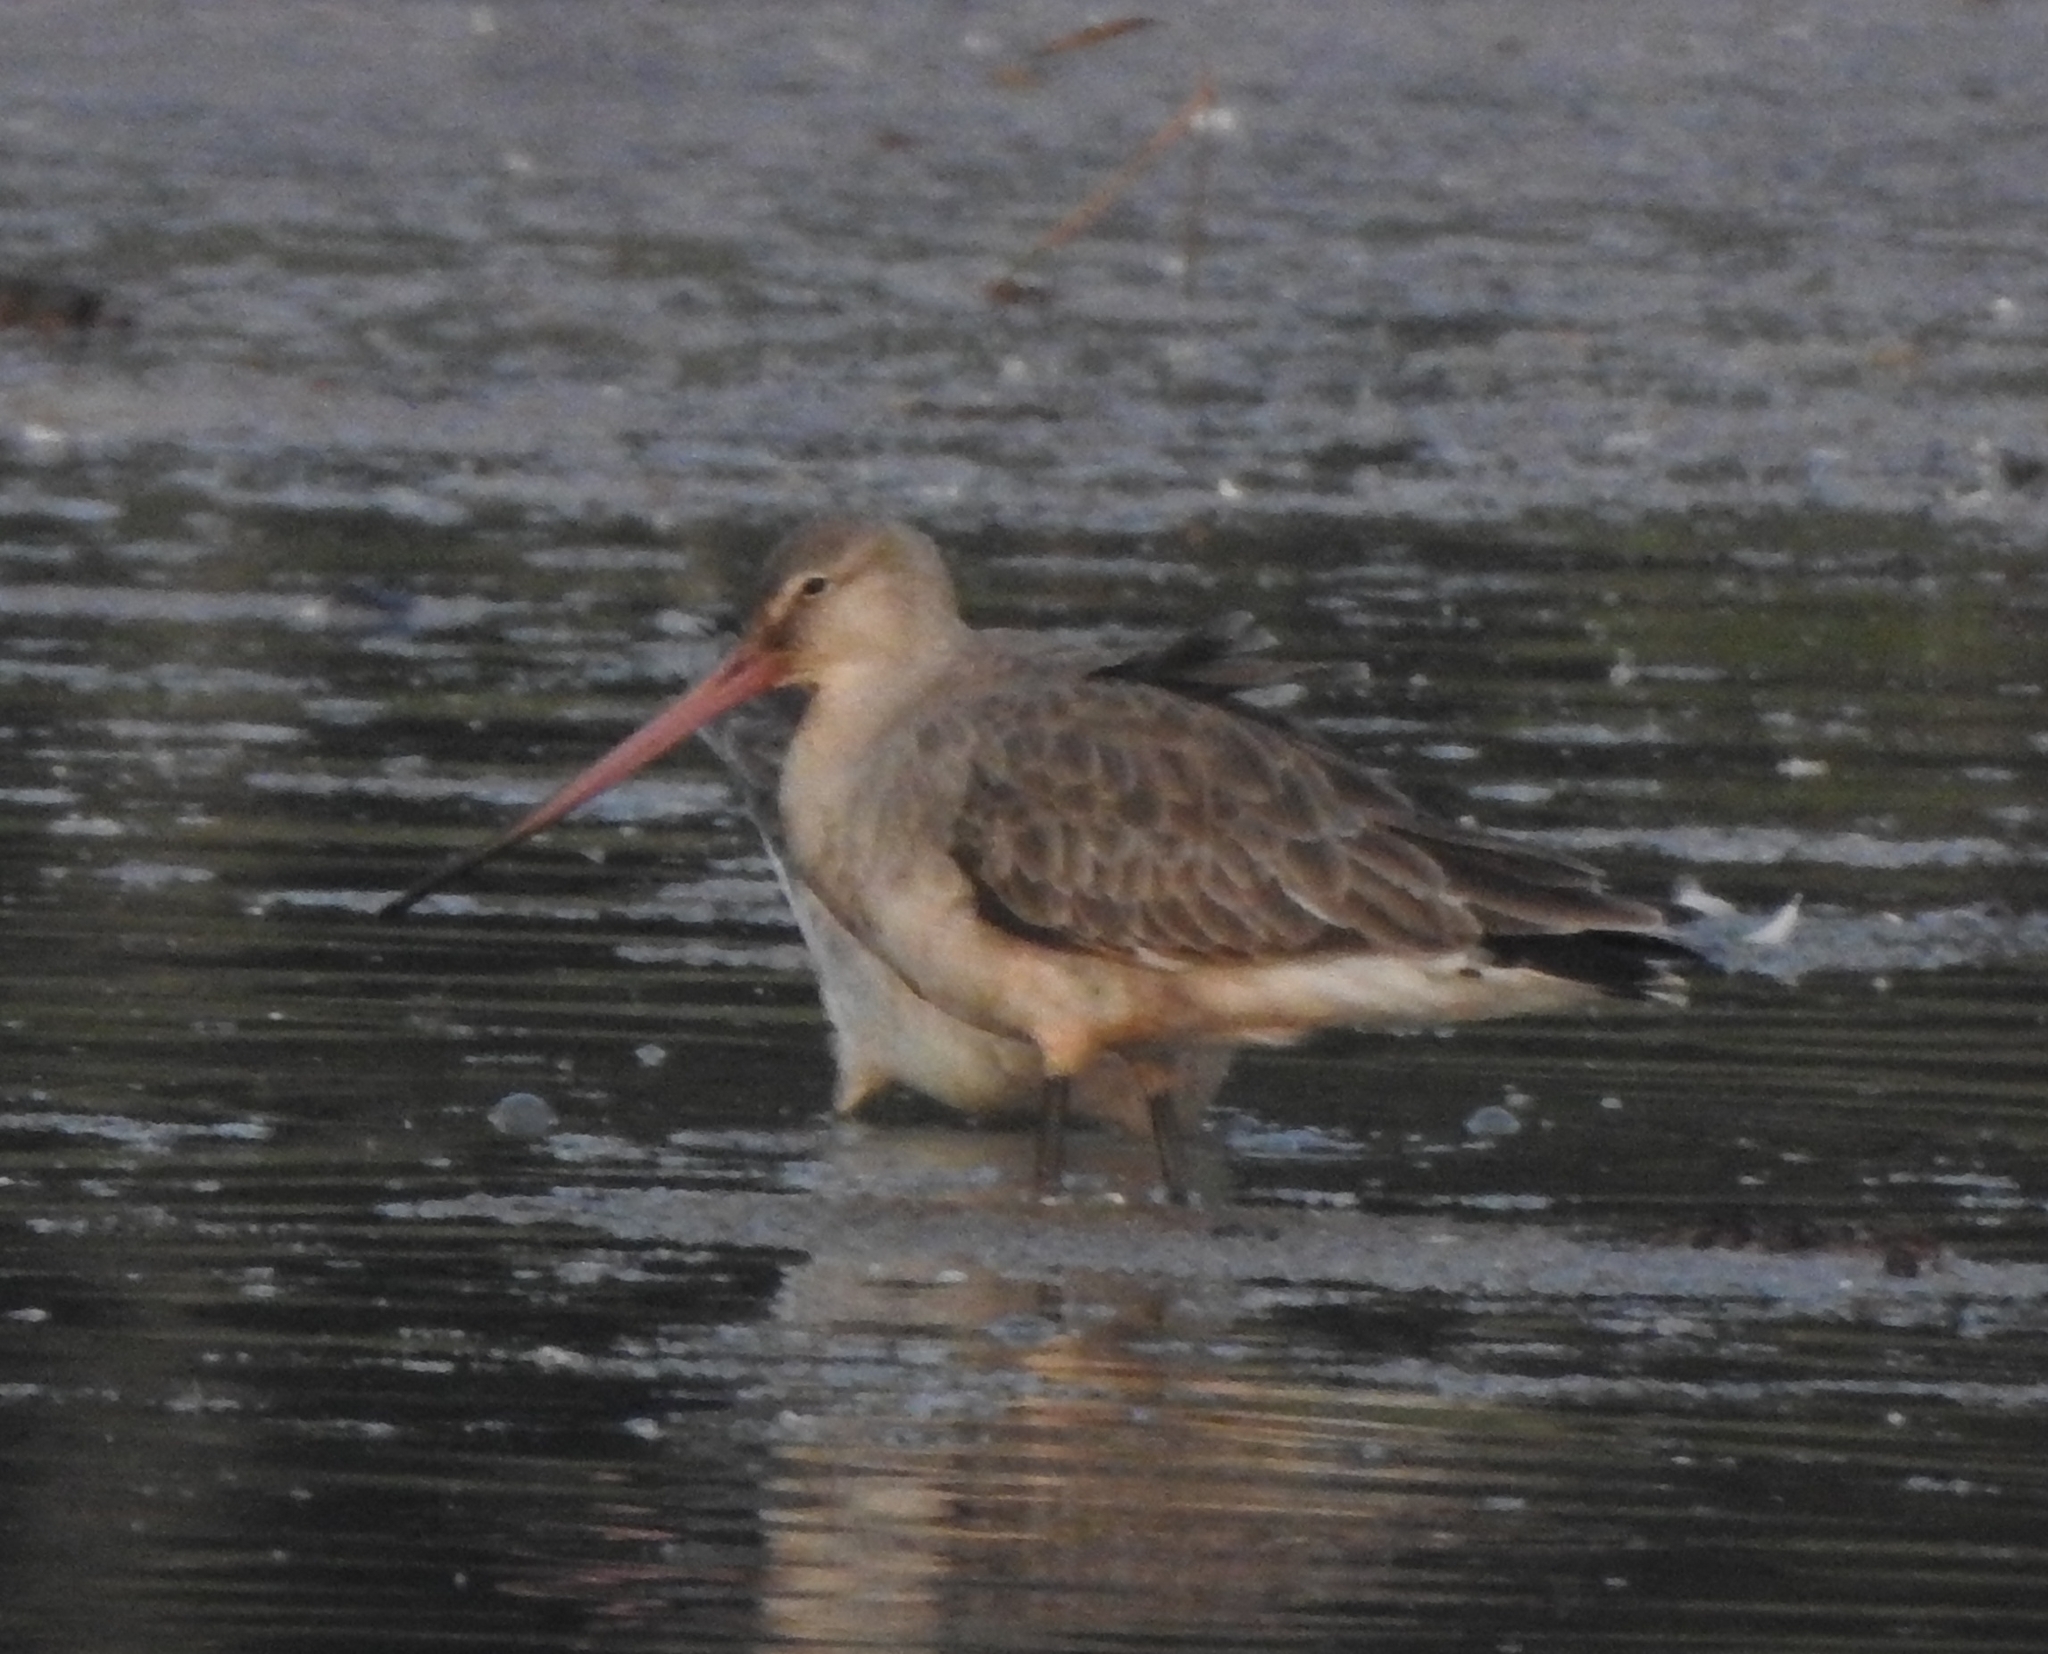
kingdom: Animalia
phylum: Chordata
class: Aves
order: Charadriiformes
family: Scolopacidae
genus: Limosa
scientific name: Limosa limosa
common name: Black-tailed godwit
